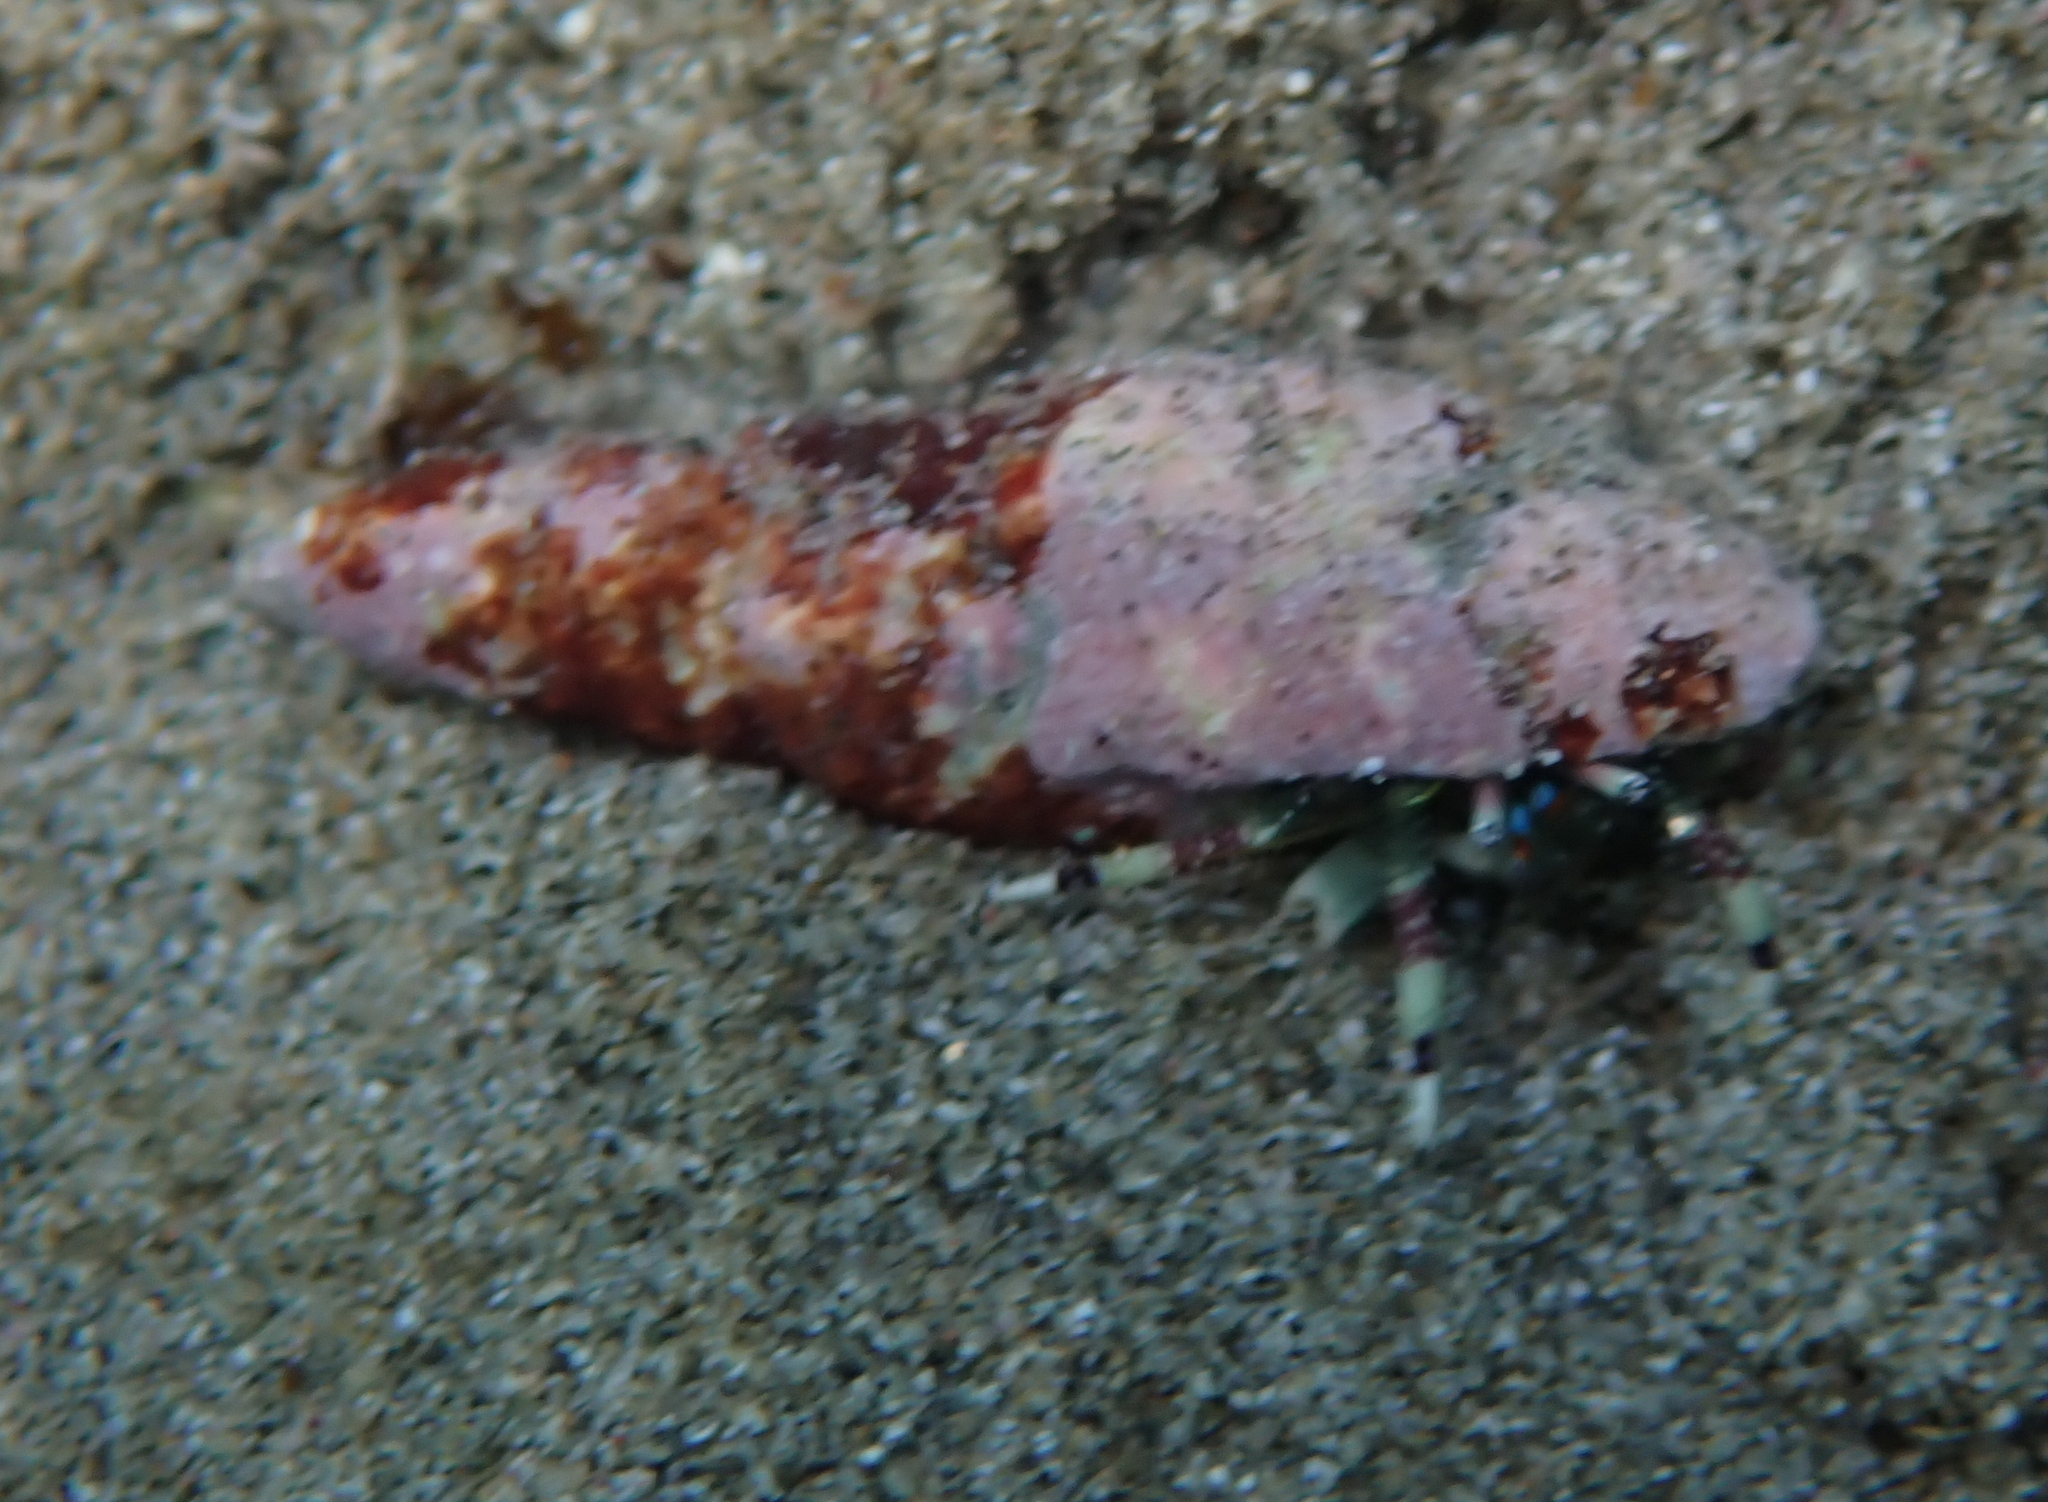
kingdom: Animalia
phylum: Arthropoda
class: Malacostraca
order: Decapoda
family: Diogenidae
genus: Calcinus
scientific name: Calcinus latens
